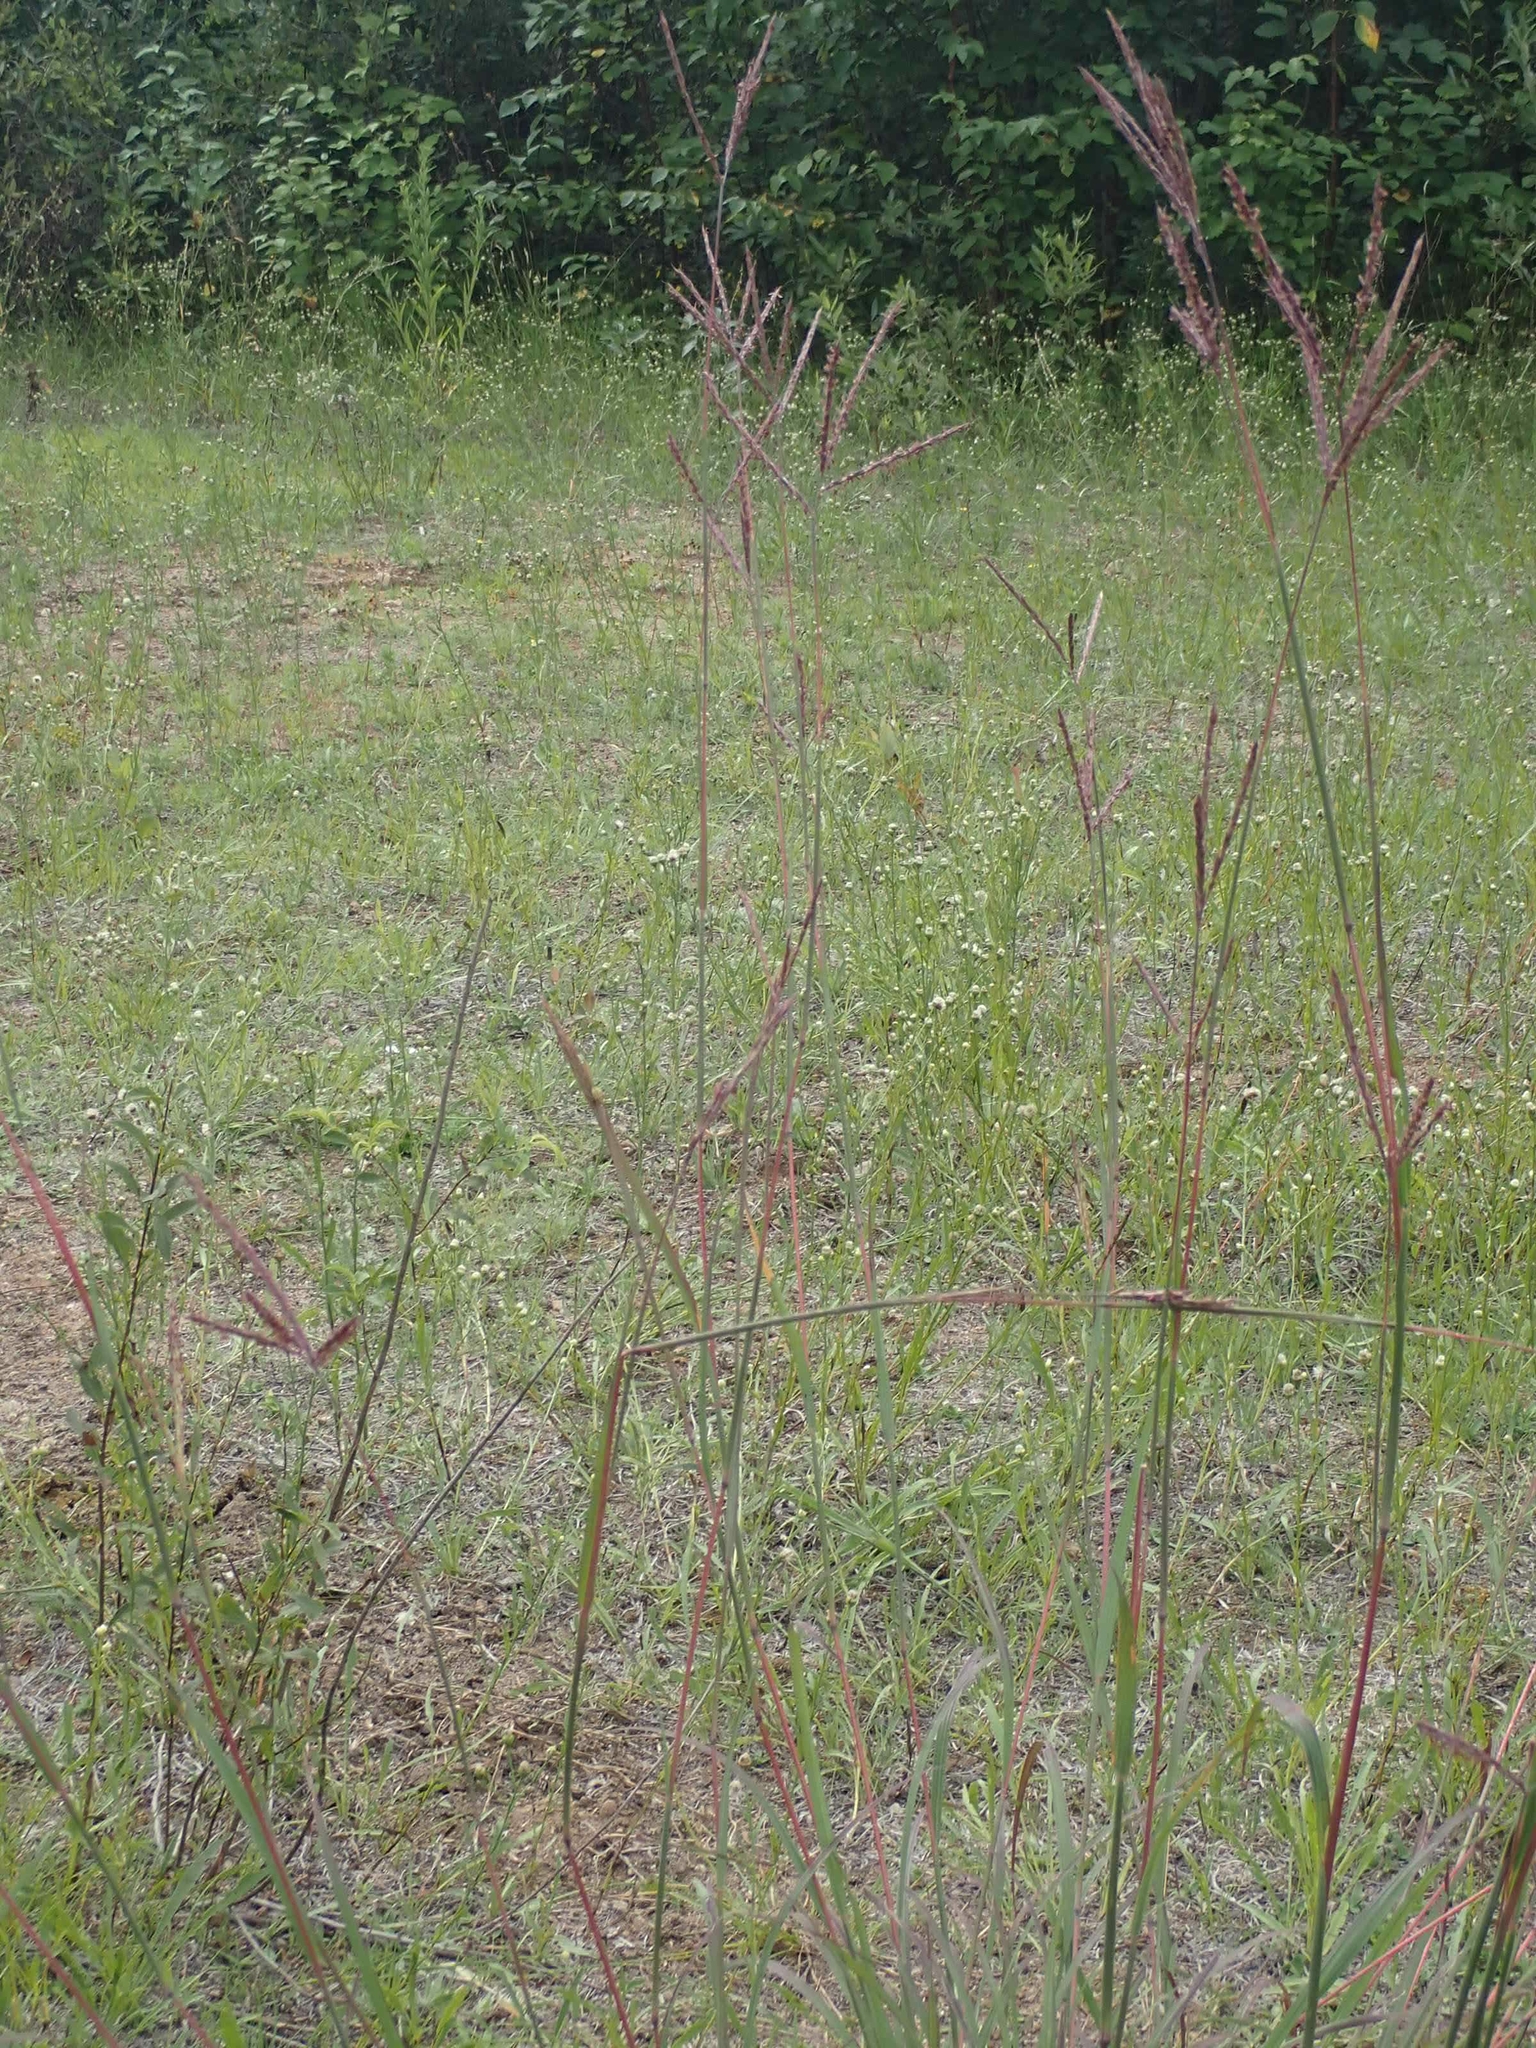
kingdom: Plantae
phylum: Tracheophyta
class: Liliopsida
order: Poales
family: Poaceae
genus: Andropogon
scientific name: Andropogon gerardi
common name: Big bluestem
